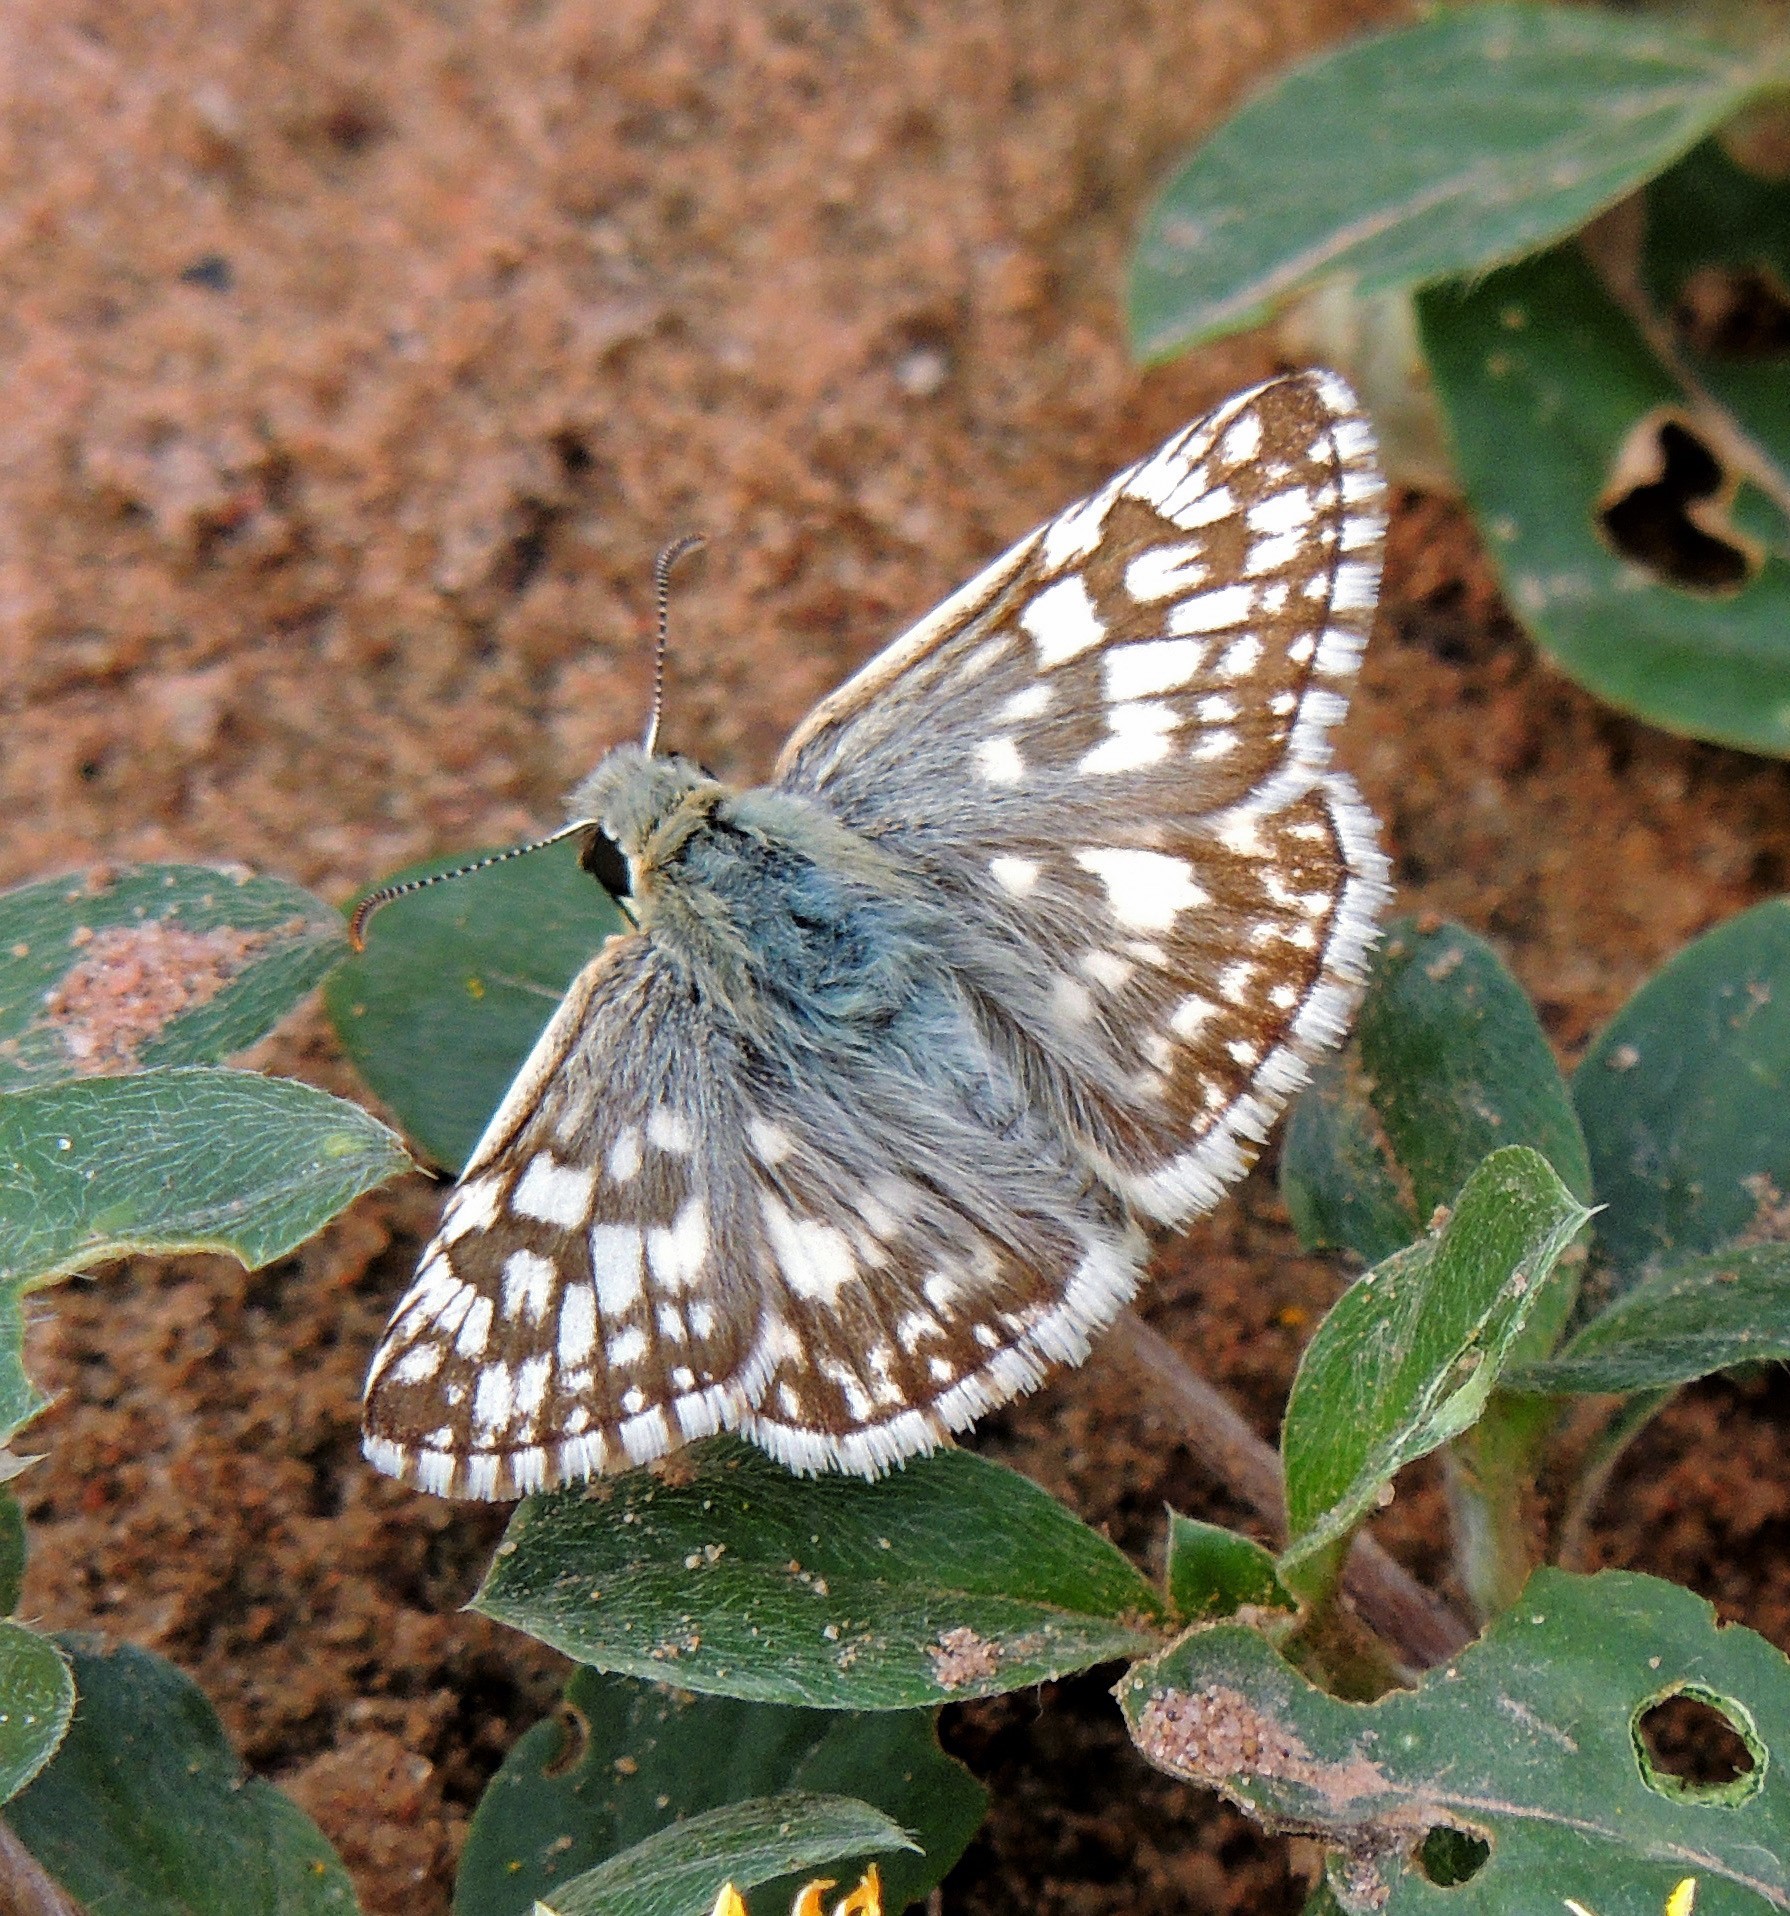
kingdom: Animalia
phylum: Arthropoda
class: Insecta
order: Lepidoptera
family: Hesperiidae
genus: Heliopetes
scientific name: Heliopetes americanus
